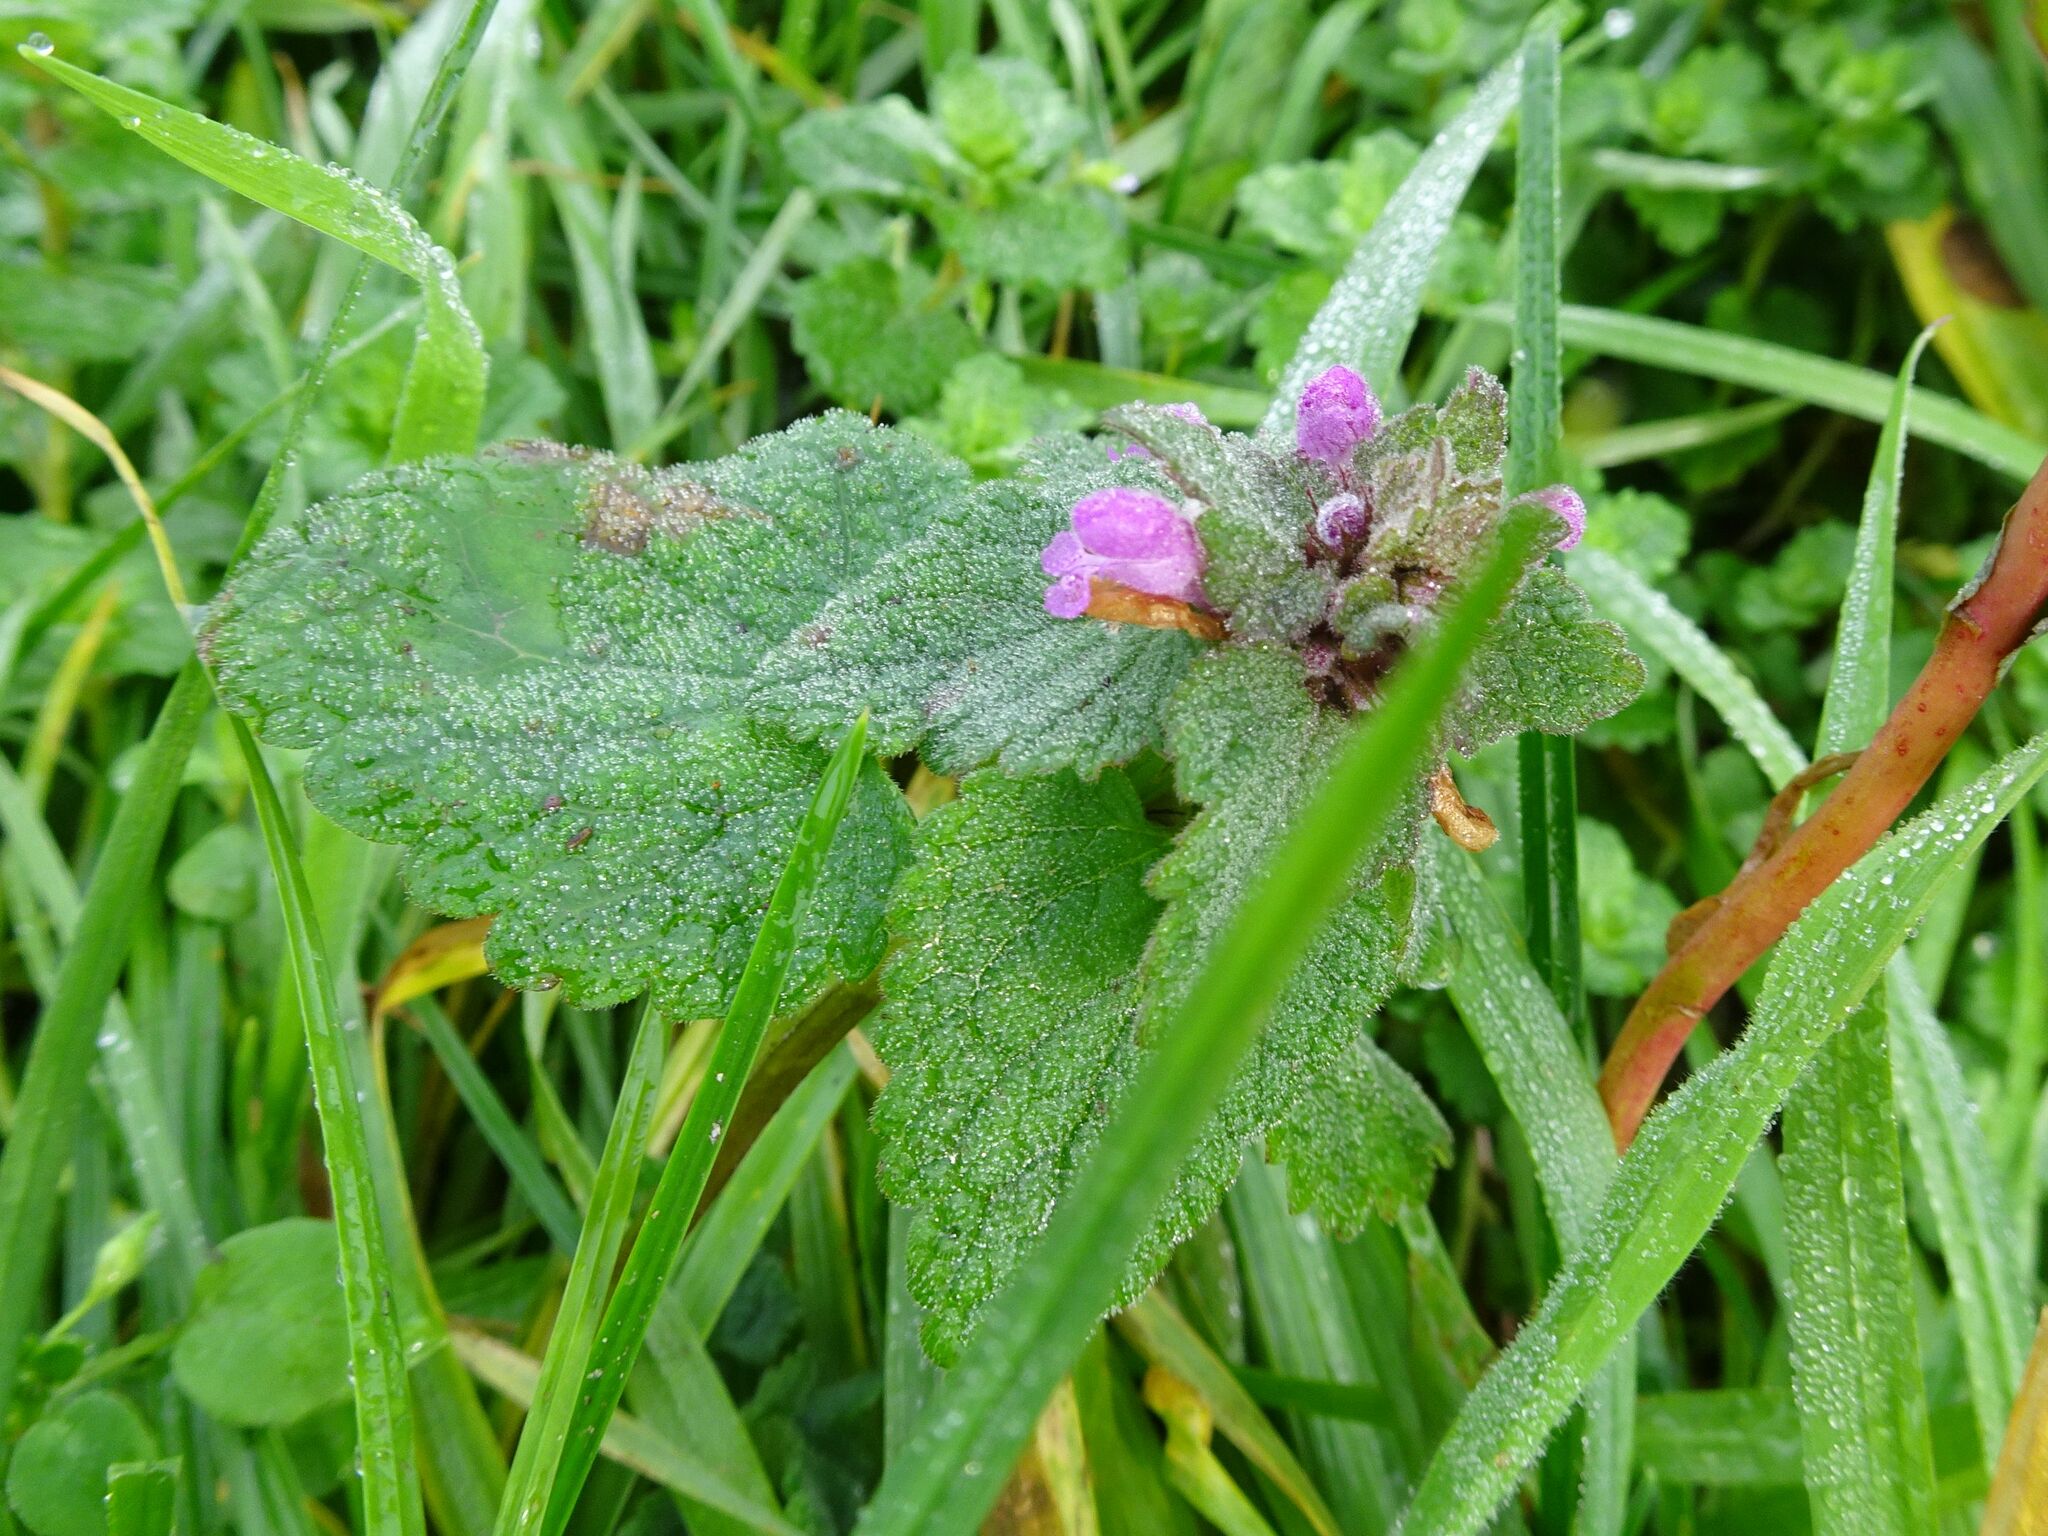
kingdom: Plantae
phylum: Tracheophyta
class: Magnoliopsida
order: Lamiales
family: Lamiaceae
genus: Lamium
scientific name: Lamium purpureum
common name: Red dead-nettle
